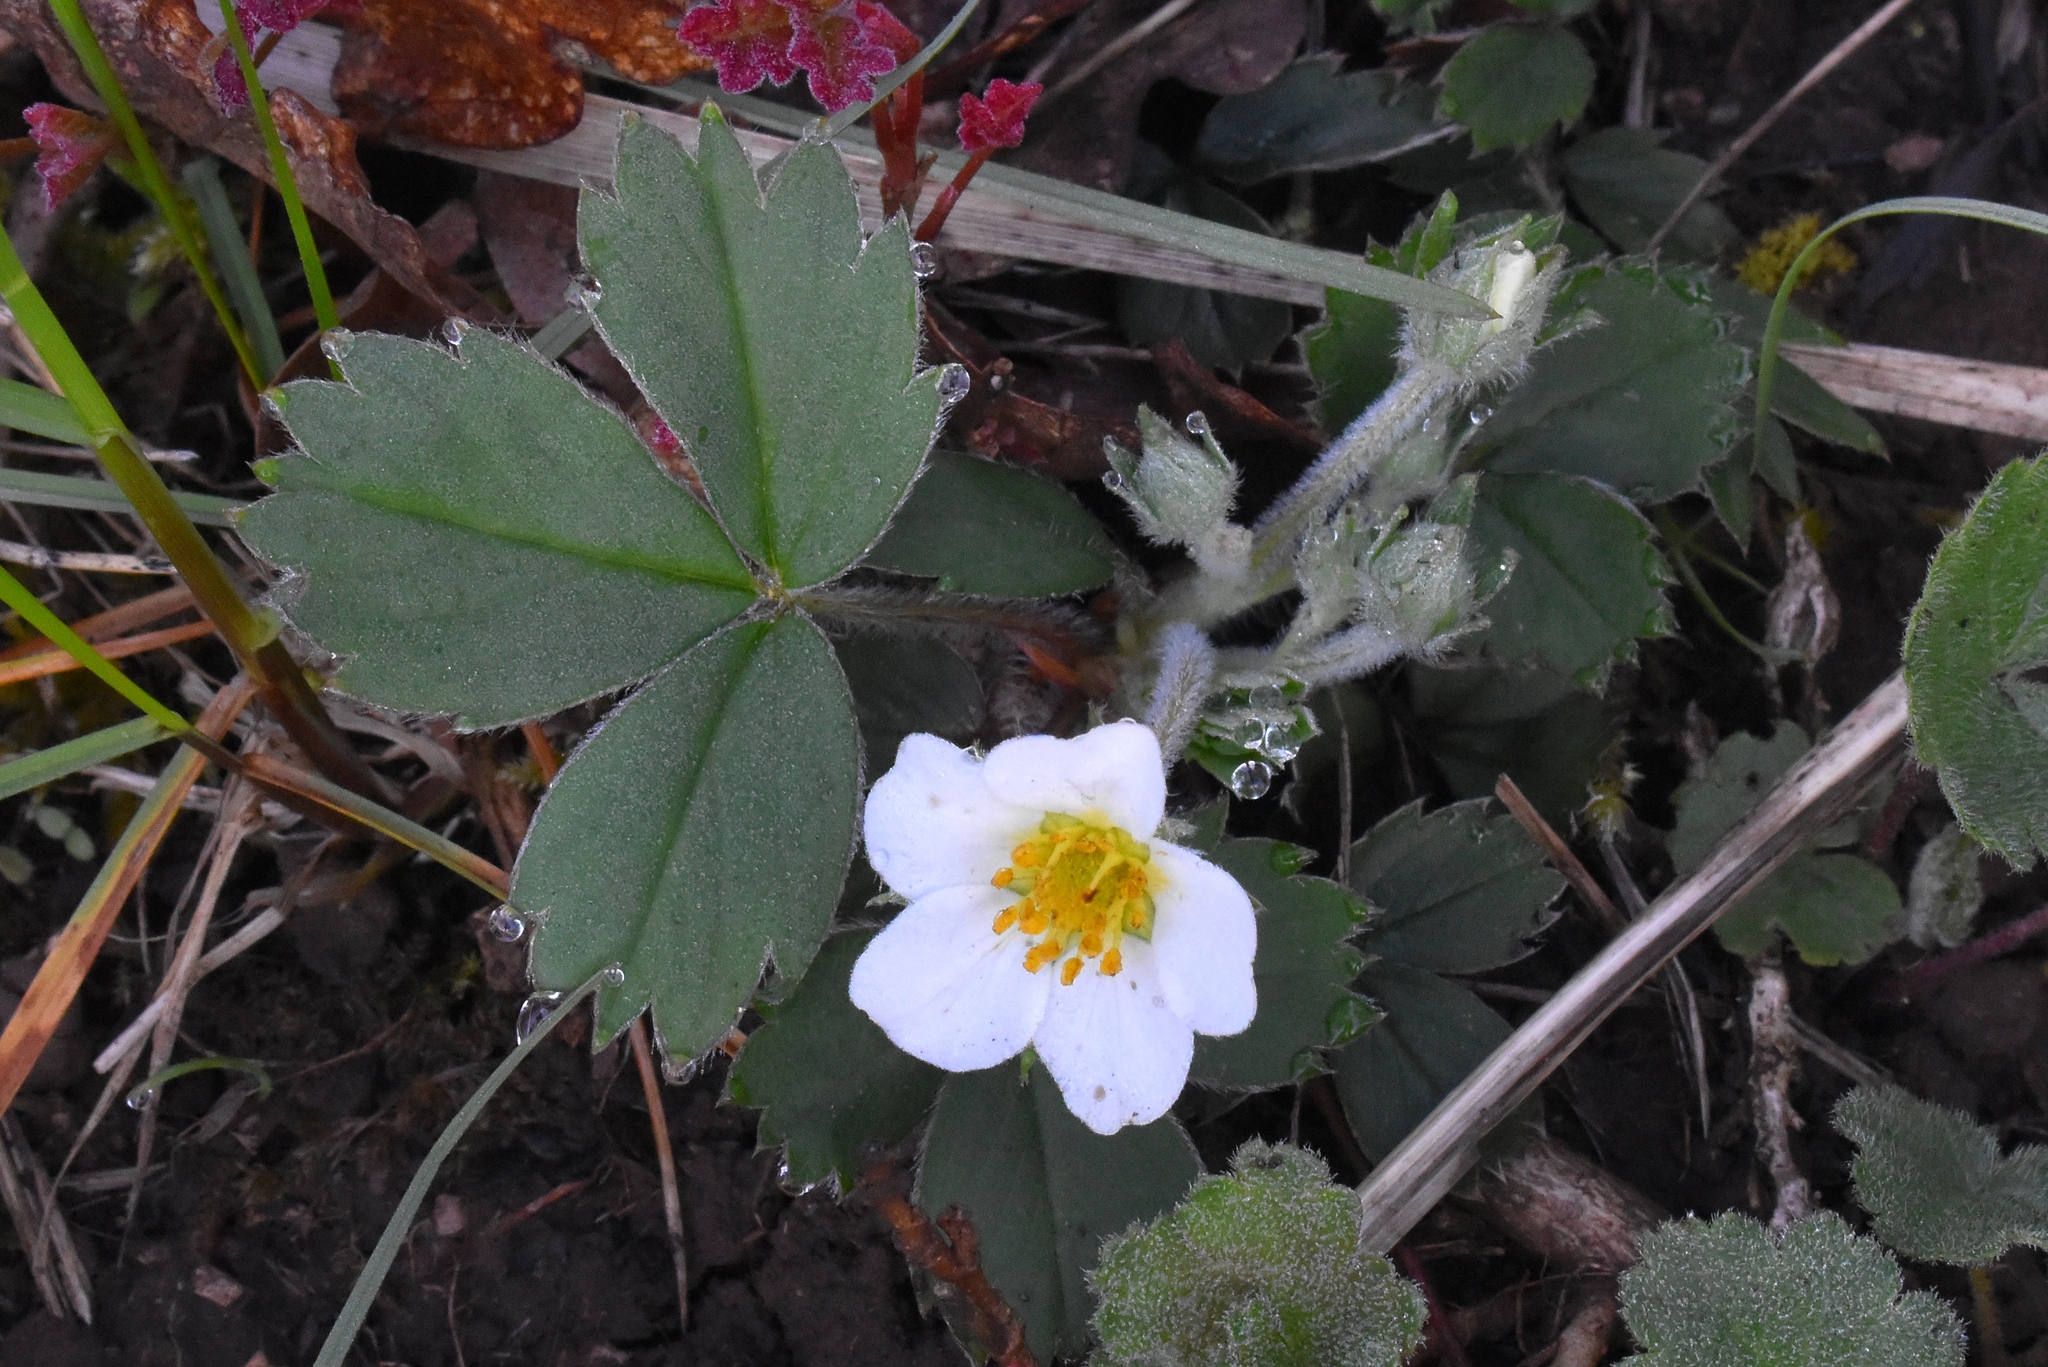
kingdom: Plantae
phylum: Tracheophyta
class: Magnoliopsida
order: Rosales
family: Rosaceae
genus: Fragaria
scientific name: Fragaria virginiana
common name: Thickleaved wild strawberry
